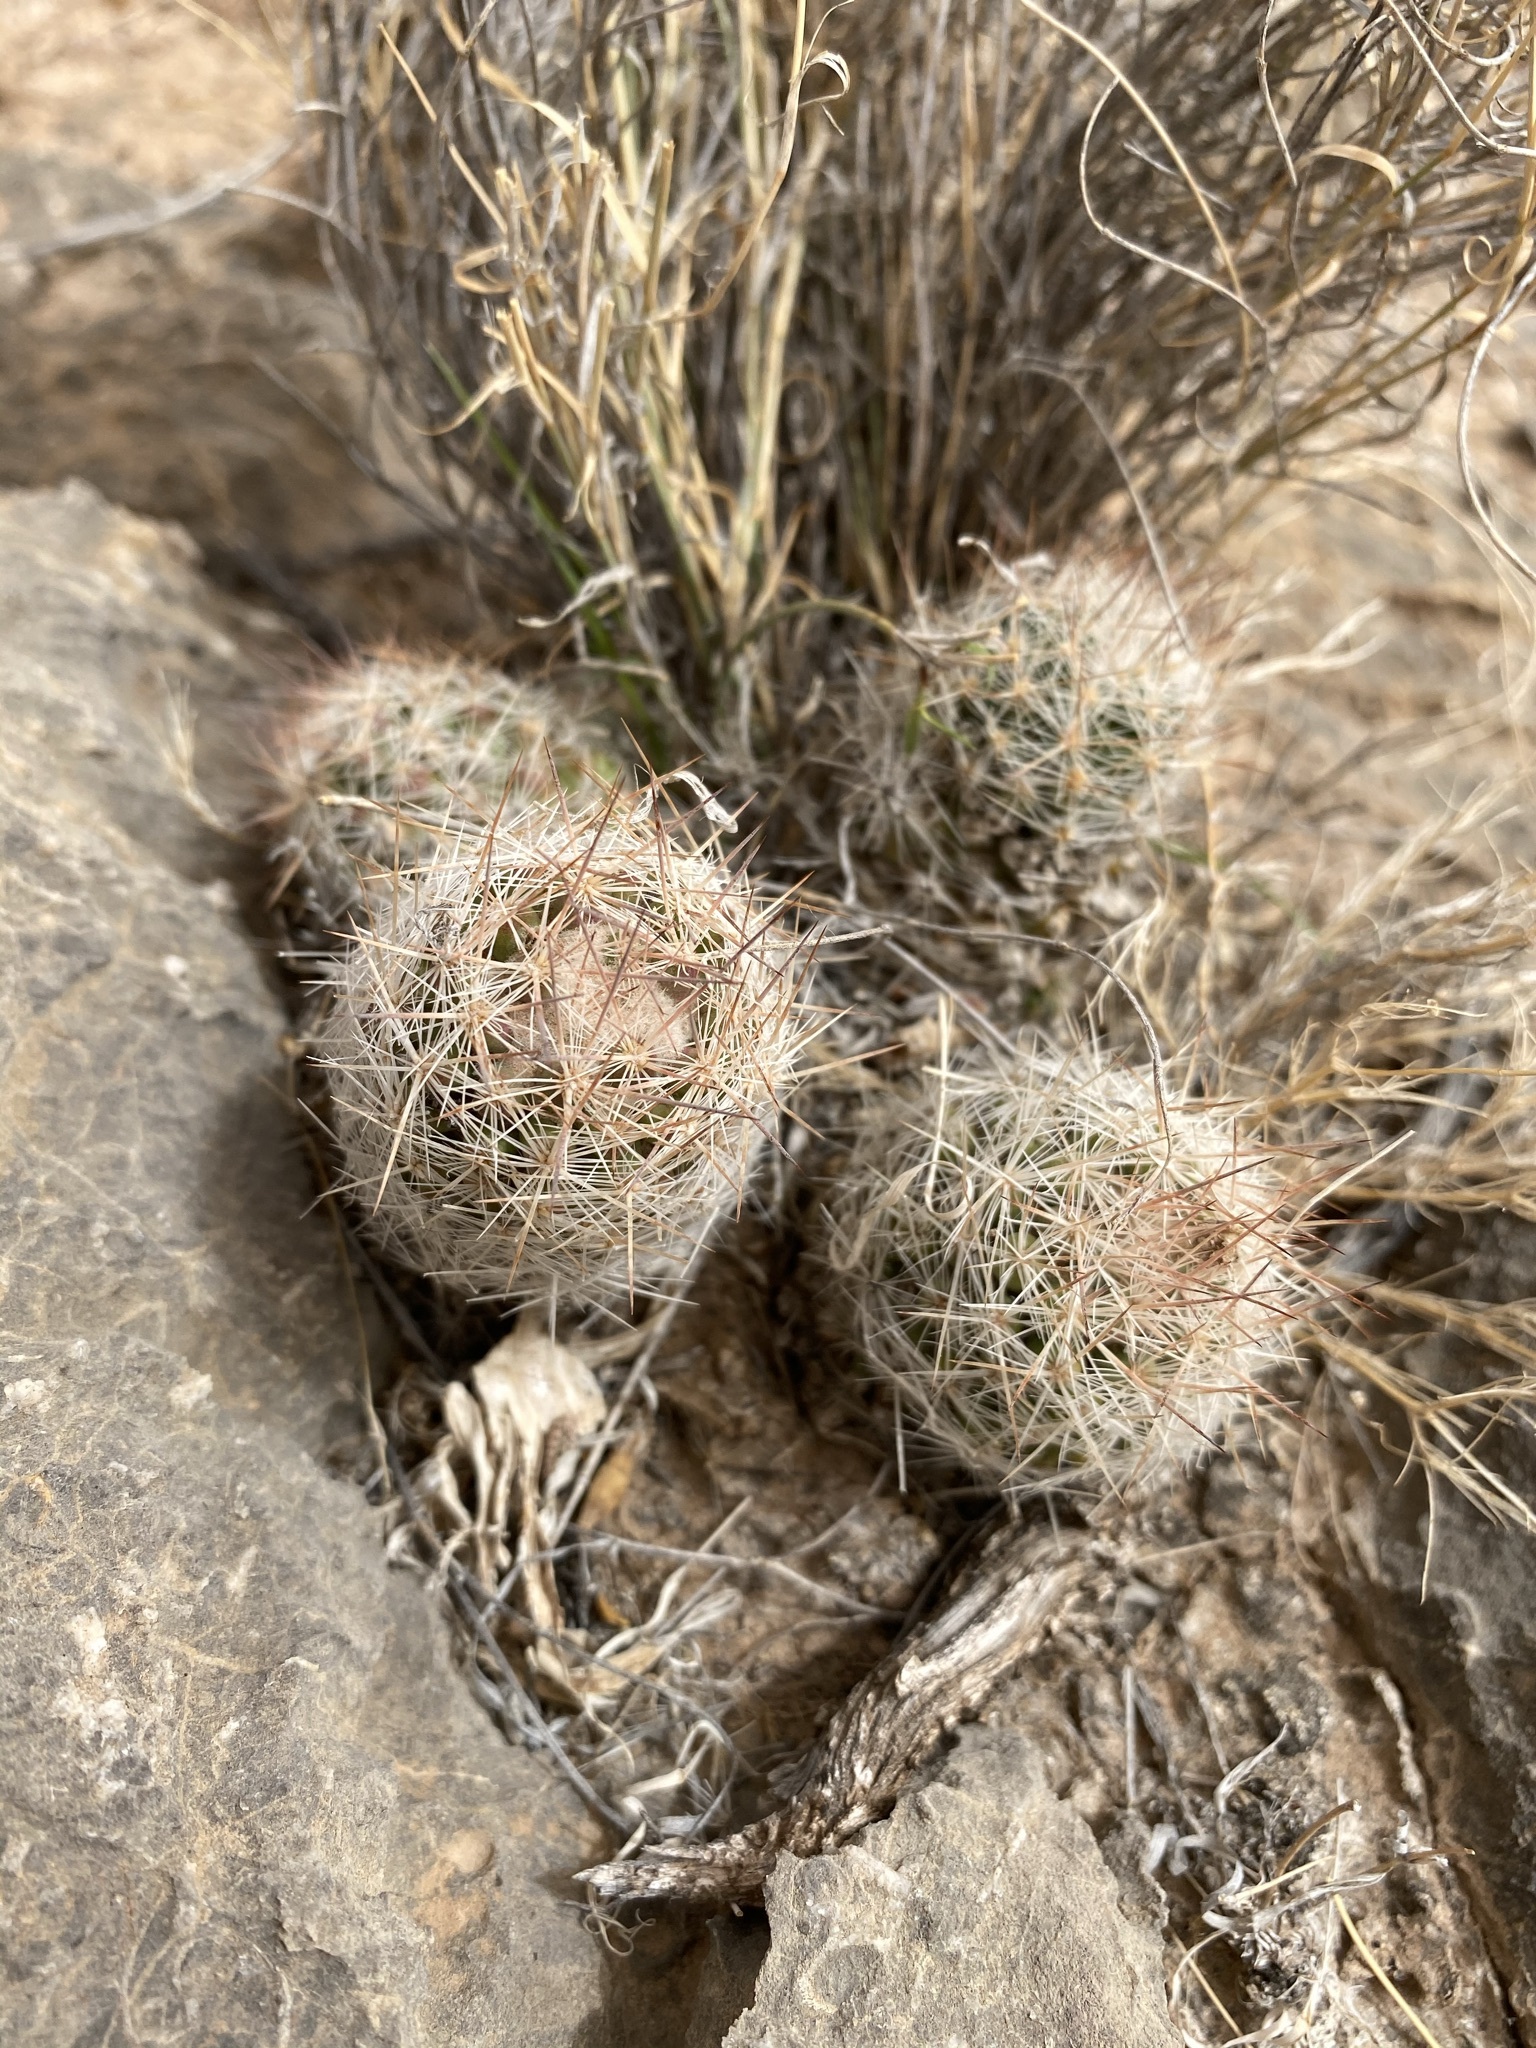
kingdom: Plantae
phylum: Tracheophyta
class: Magnoliopsida
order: Caryophyllales
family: Cactaceae
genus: Pelecyphora
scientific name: Pelecyphora tuberculosa
